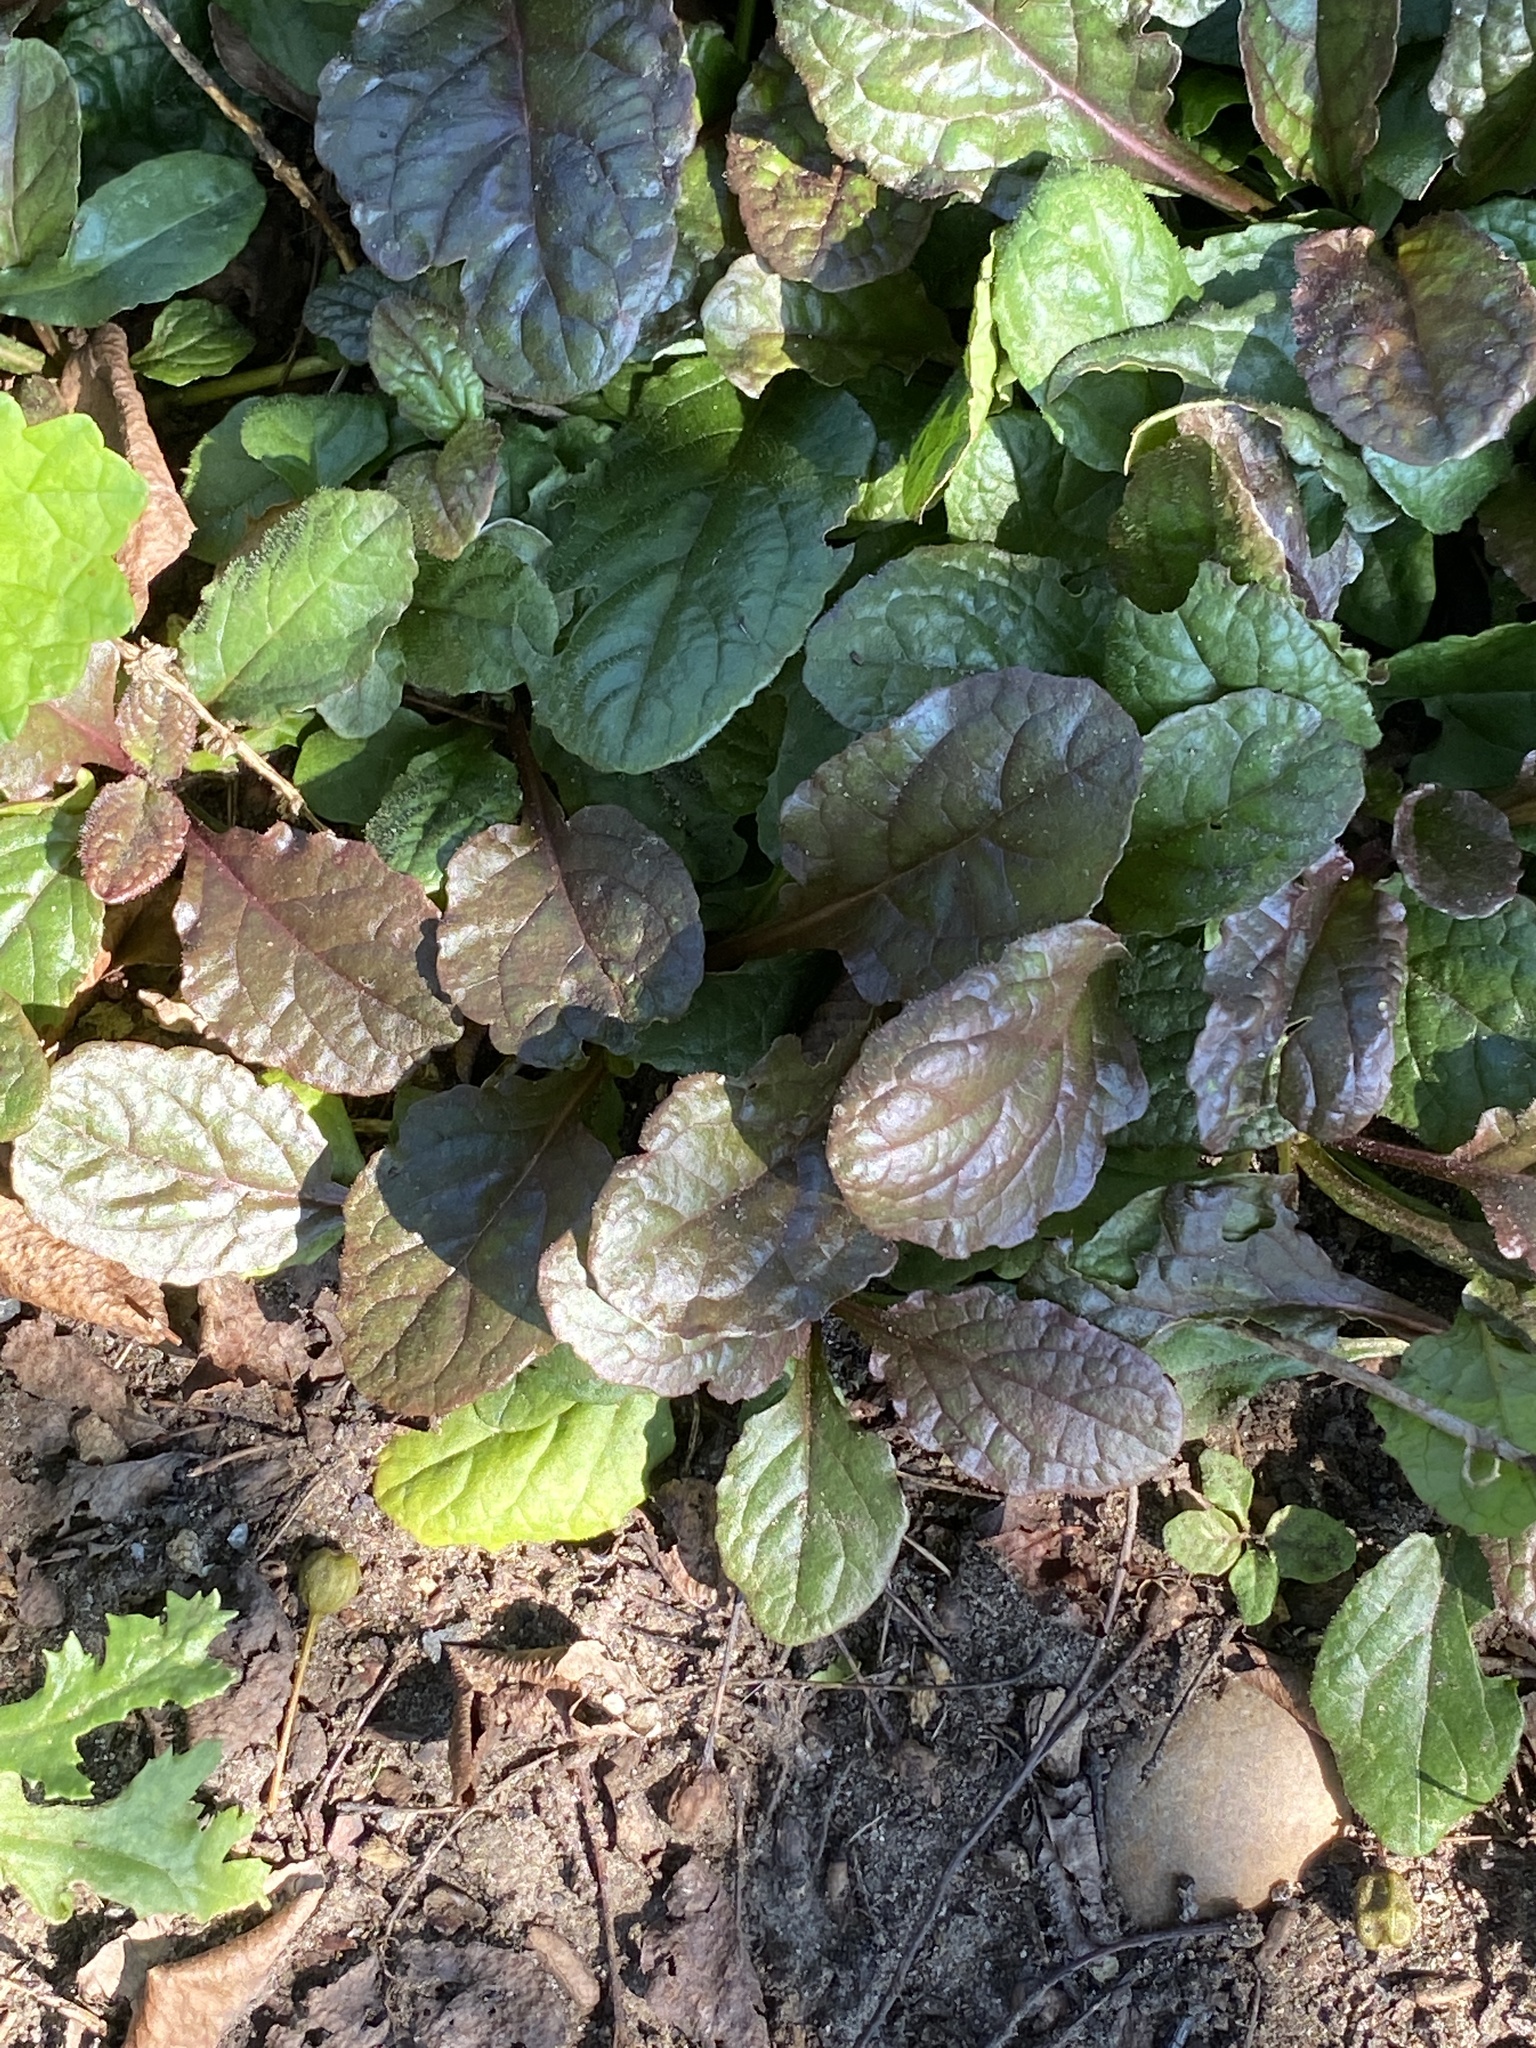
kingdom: Plantae
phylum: Tracheophyta
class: Magnoliopsida
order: Lamiales
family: Lamiaceae
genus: Ajuga
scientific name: Ajuga reptans
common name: Bugle
